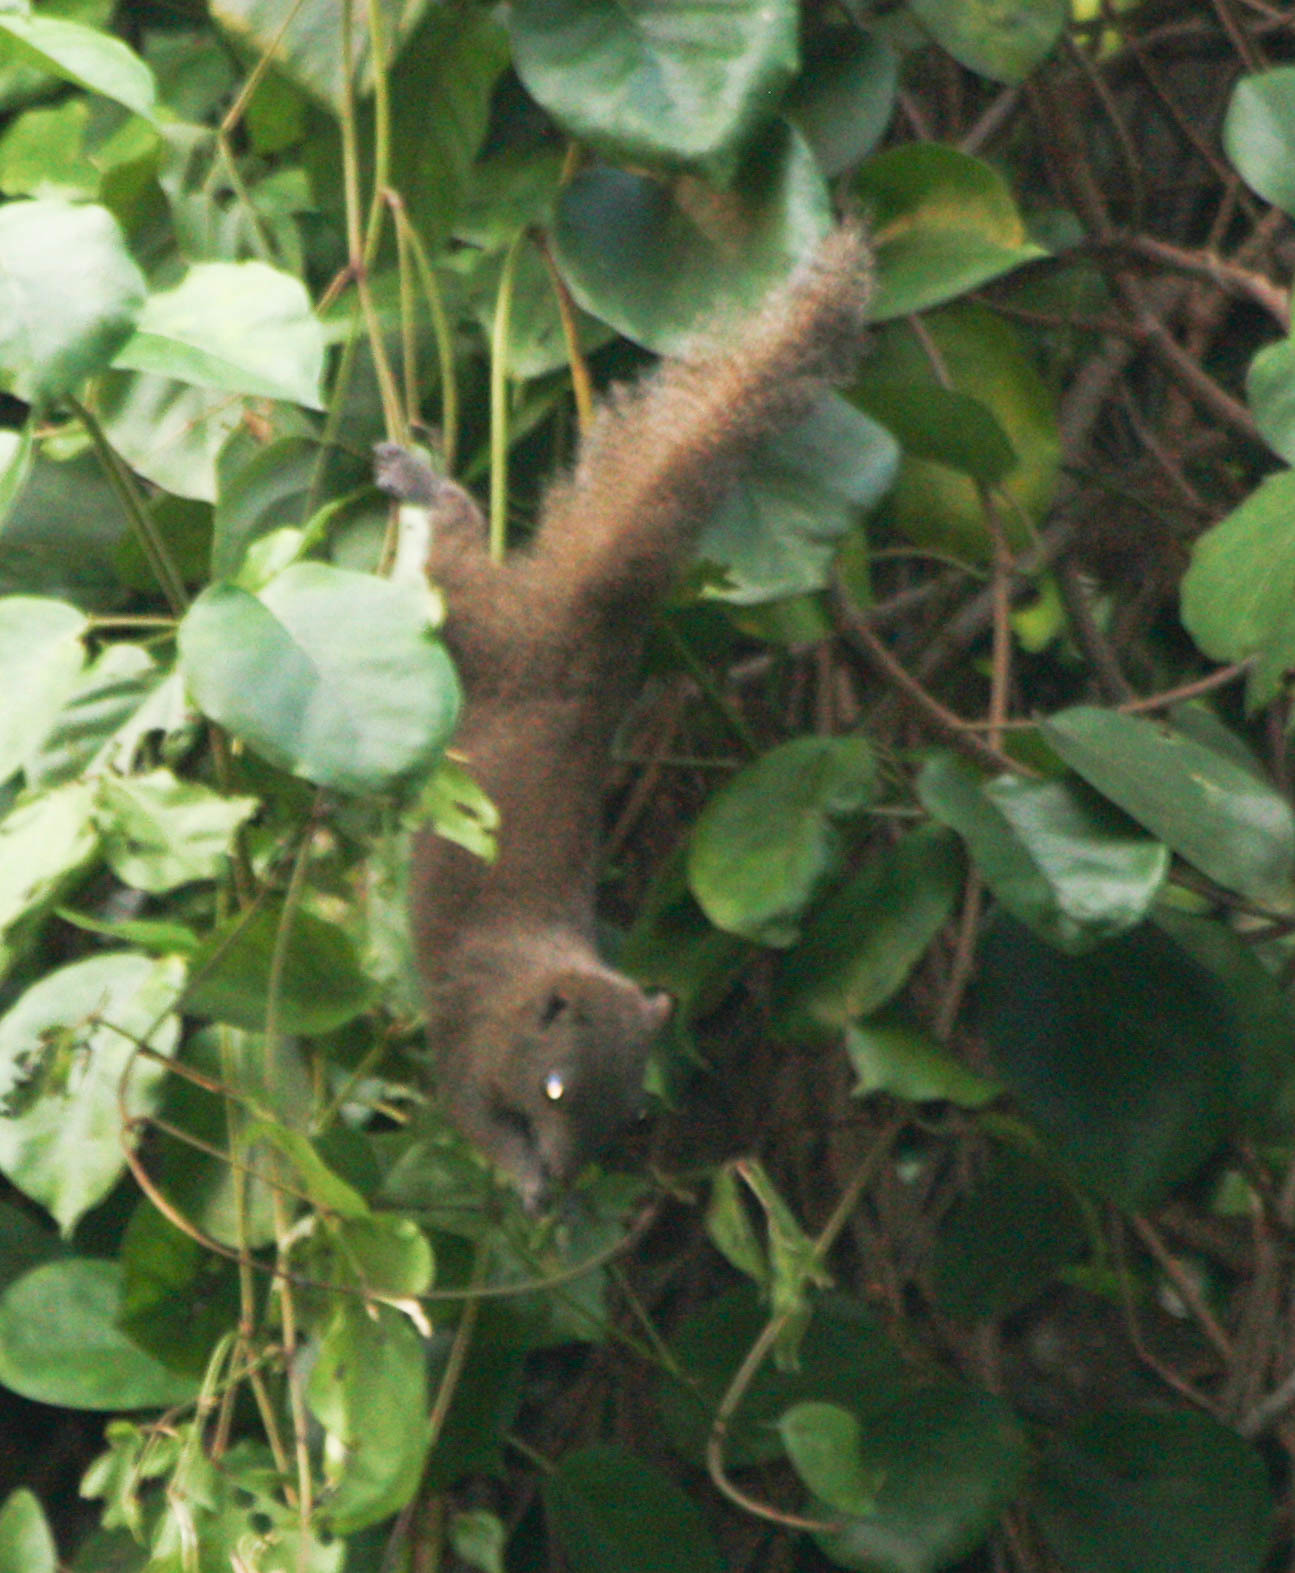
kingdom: Animalia
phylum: Chordata
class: Mammalia
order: Rodentia
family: Sciuridae
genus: Callosciurus
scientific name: Callosciurus inornatus
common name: Inornate squirrel
